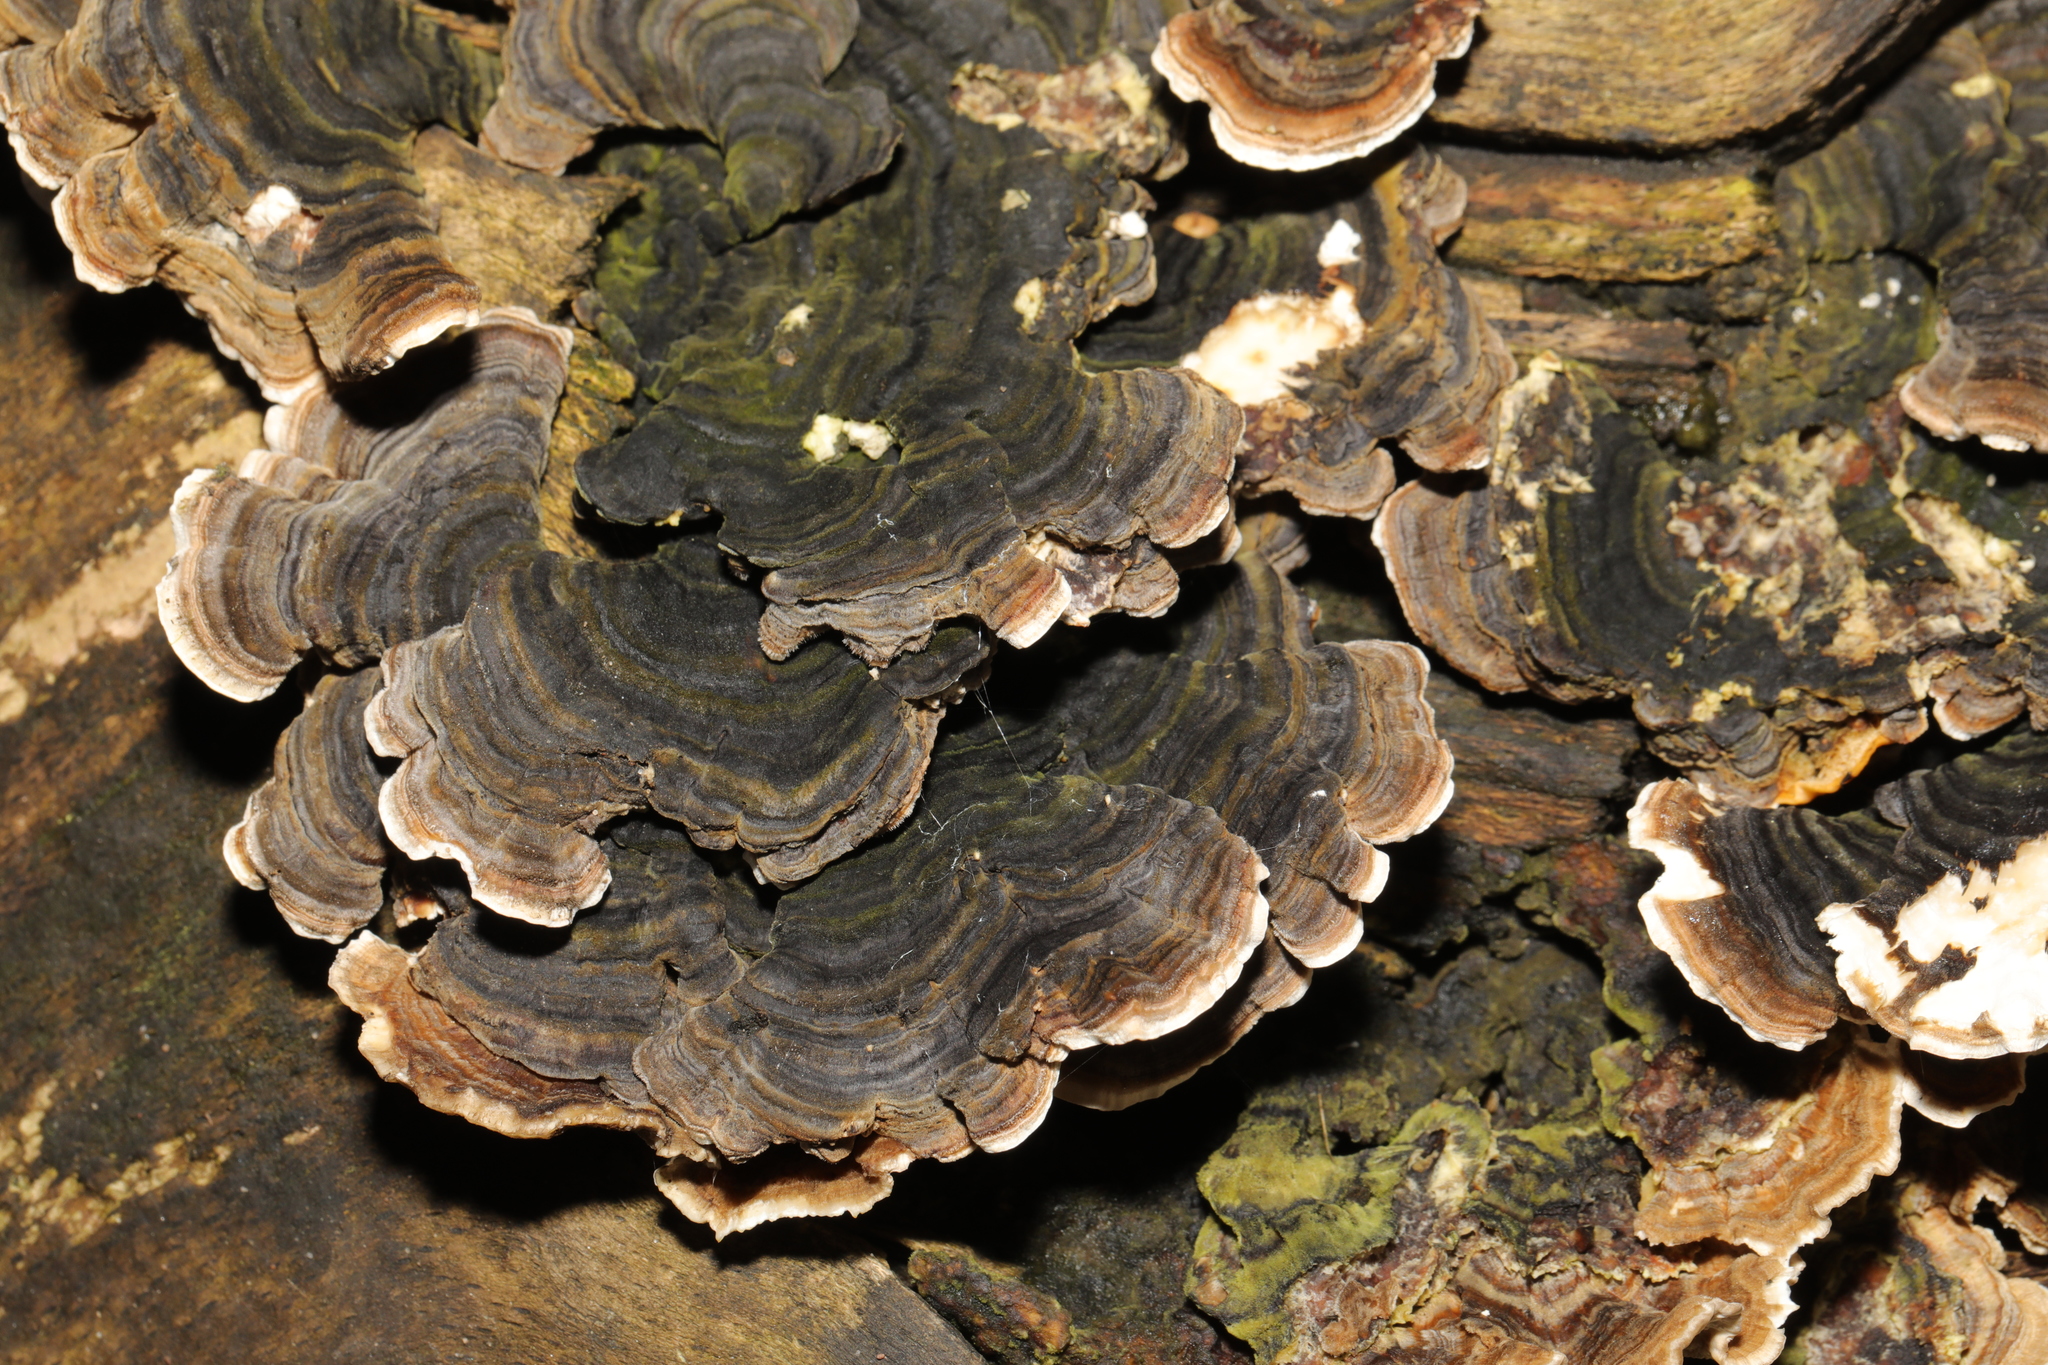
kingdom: Fungi
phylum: Basidiomycota
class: Agaricomycetes
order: Polyporales
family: Polyporaceae
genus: Trametes
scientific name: Trametes versicolor
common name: Turkeytail
